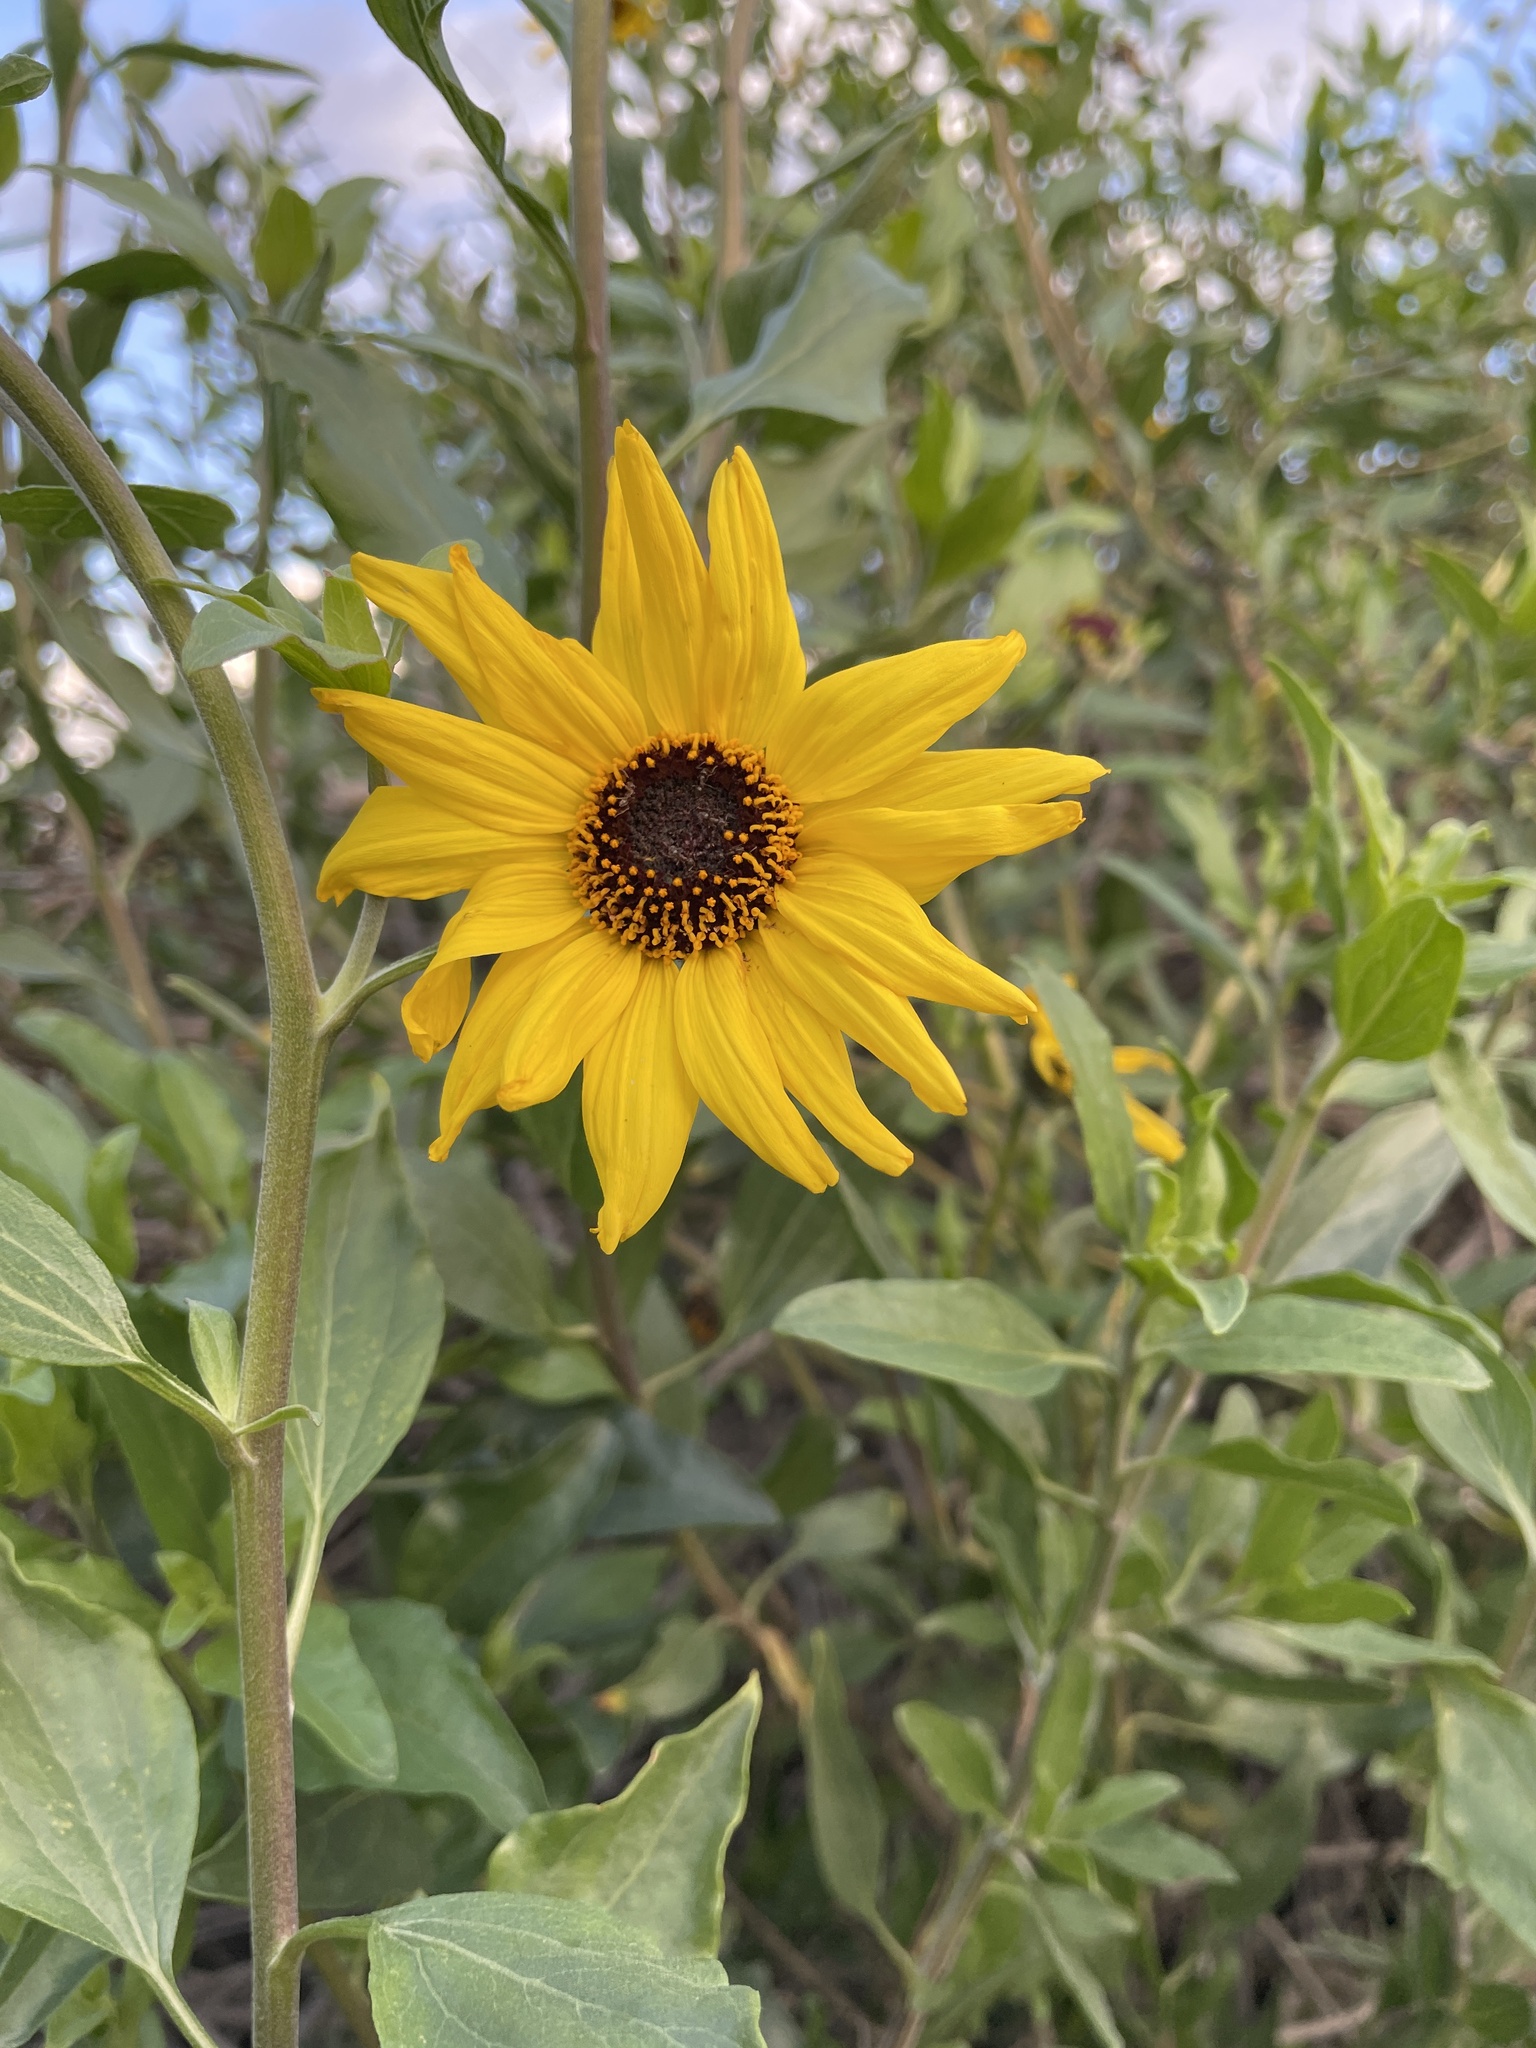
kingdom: Plantae
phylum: Tracheophyta
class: Magnoliopsida
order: Asterales
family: Asteraceae
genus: Encelia
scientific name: Encelia californica
